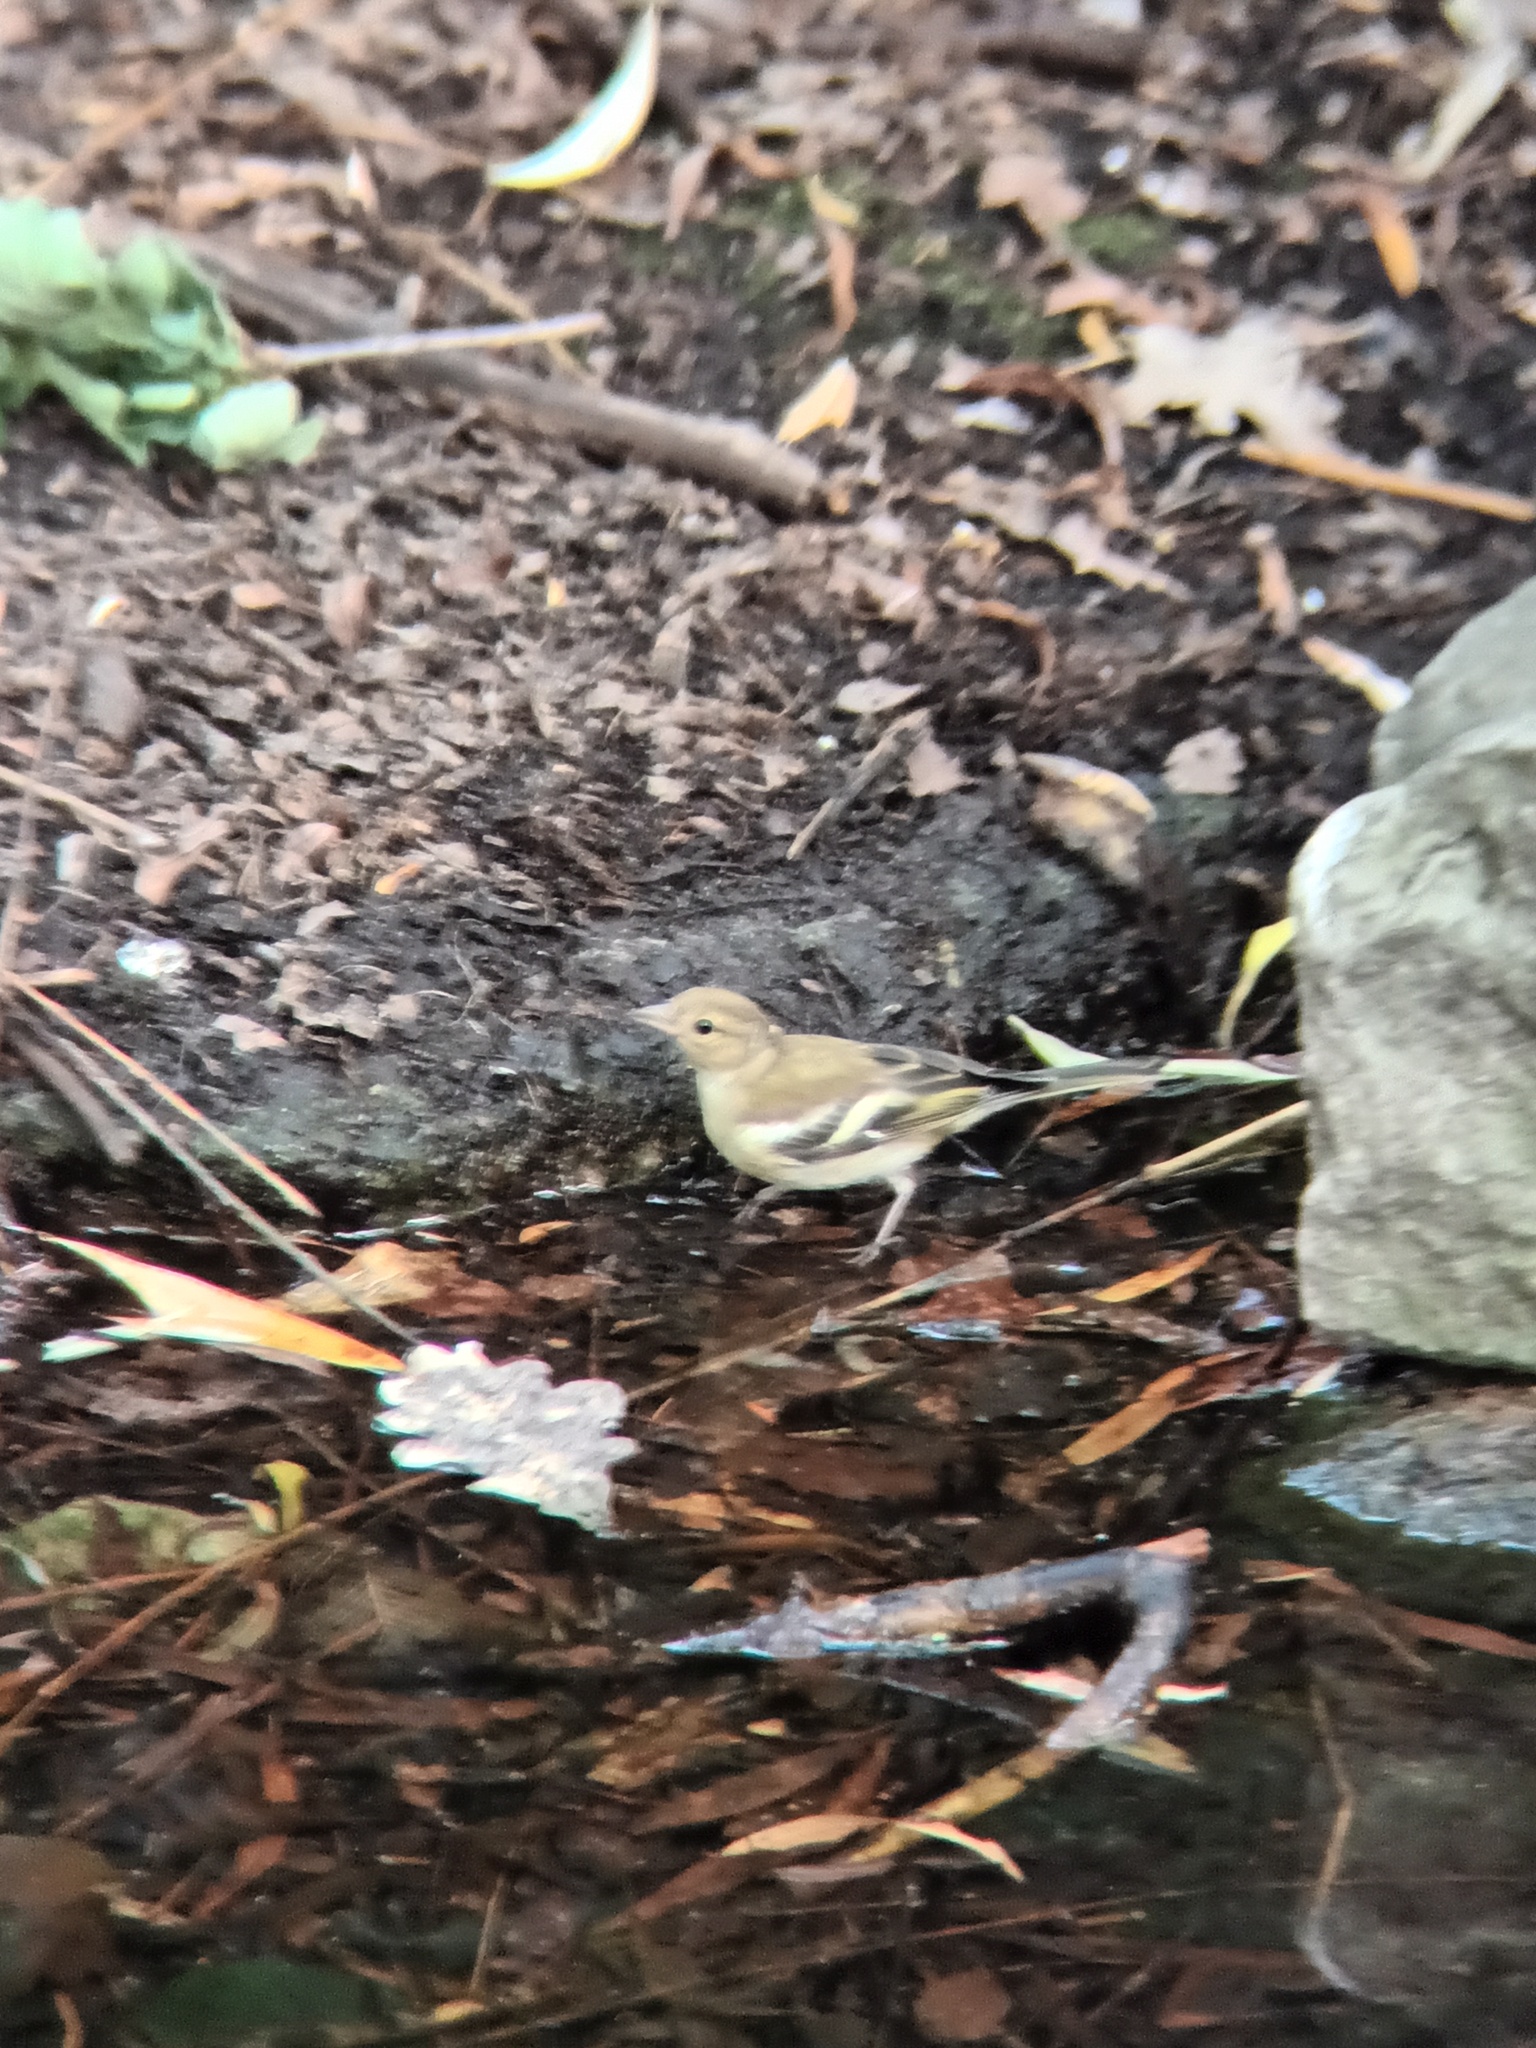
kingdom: Animalia
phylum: Chordata
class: Aves
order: Passeriformes
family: Fringillidae
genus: Fringilla
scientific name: Fringilla coelebs
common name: Common chaffinch
